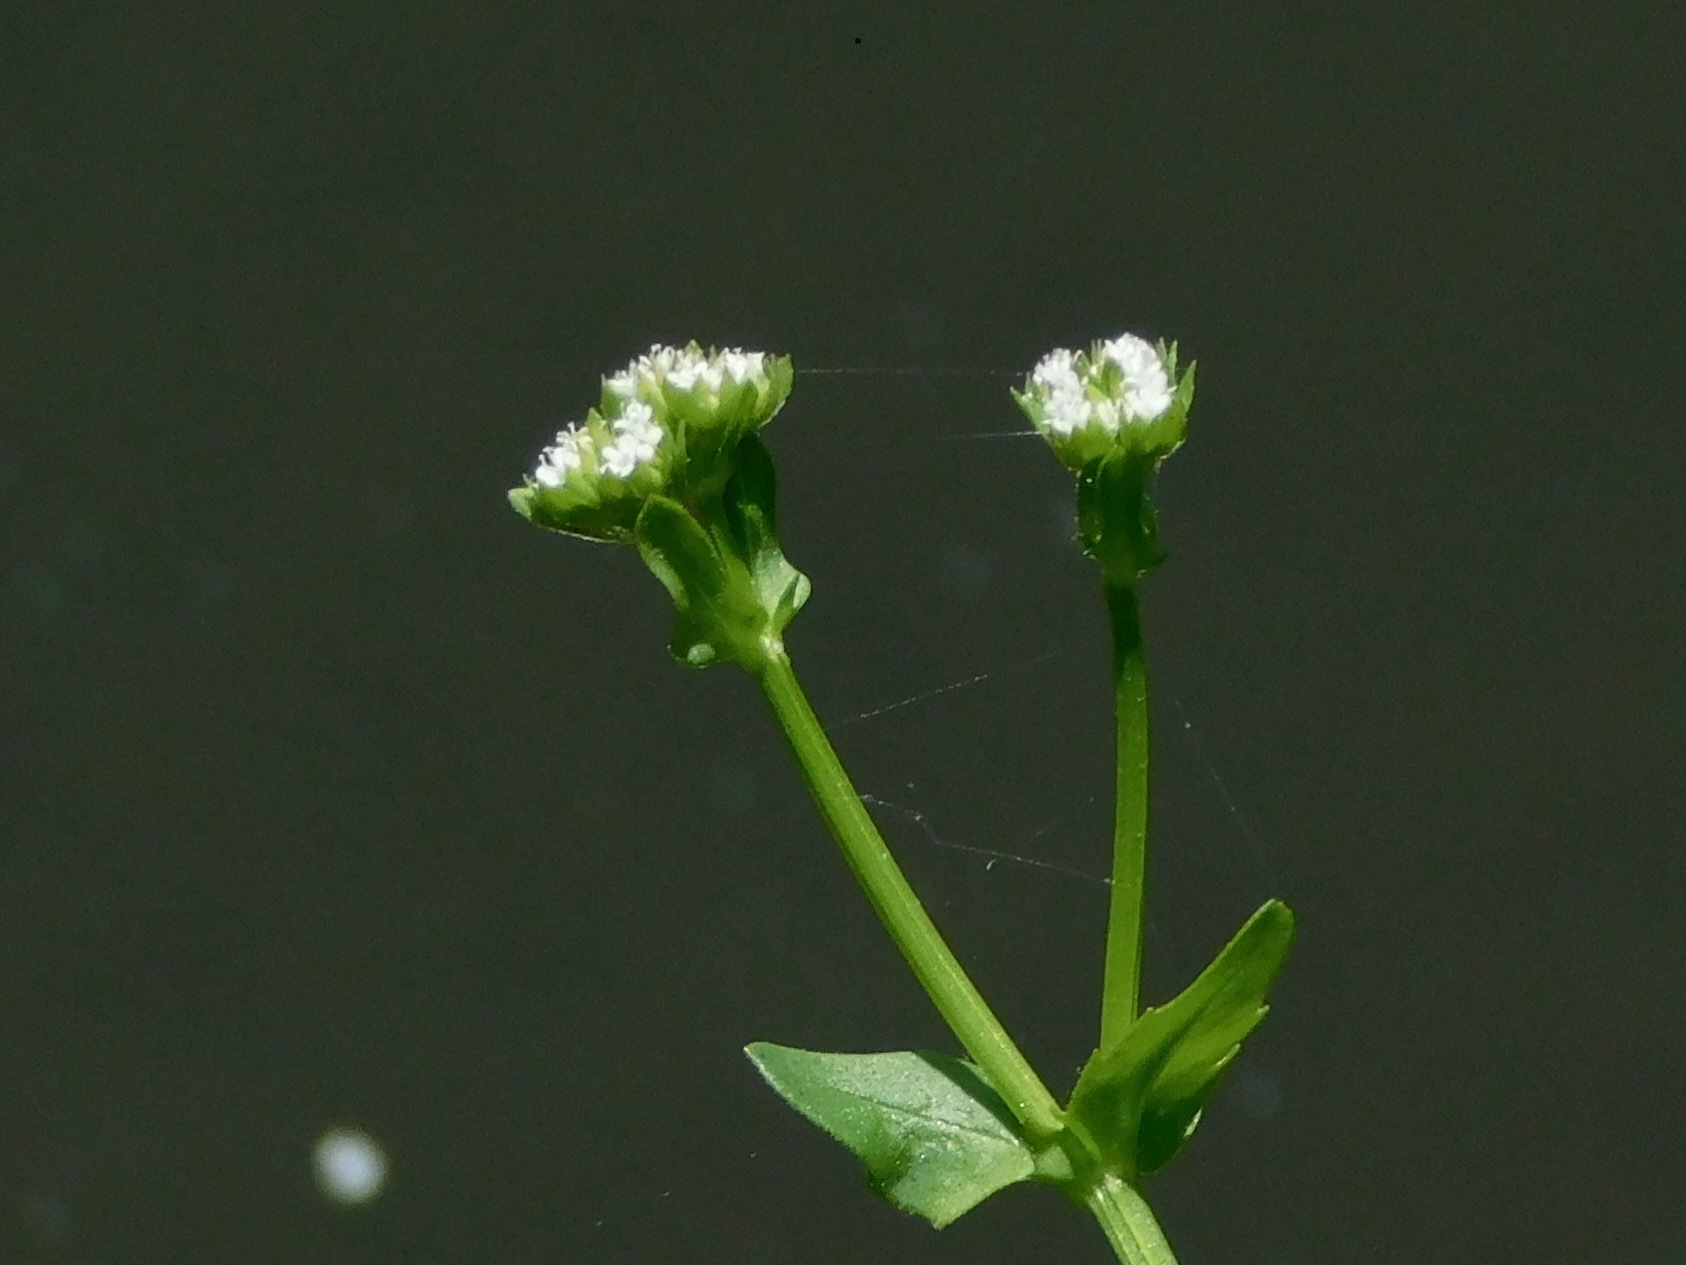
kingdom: Plantae
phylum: Tracheophyta
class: Magnoliopsida
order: Dipsacales
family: Caprifoliaceae
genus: Valerianella
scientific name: Valerianella radiata
